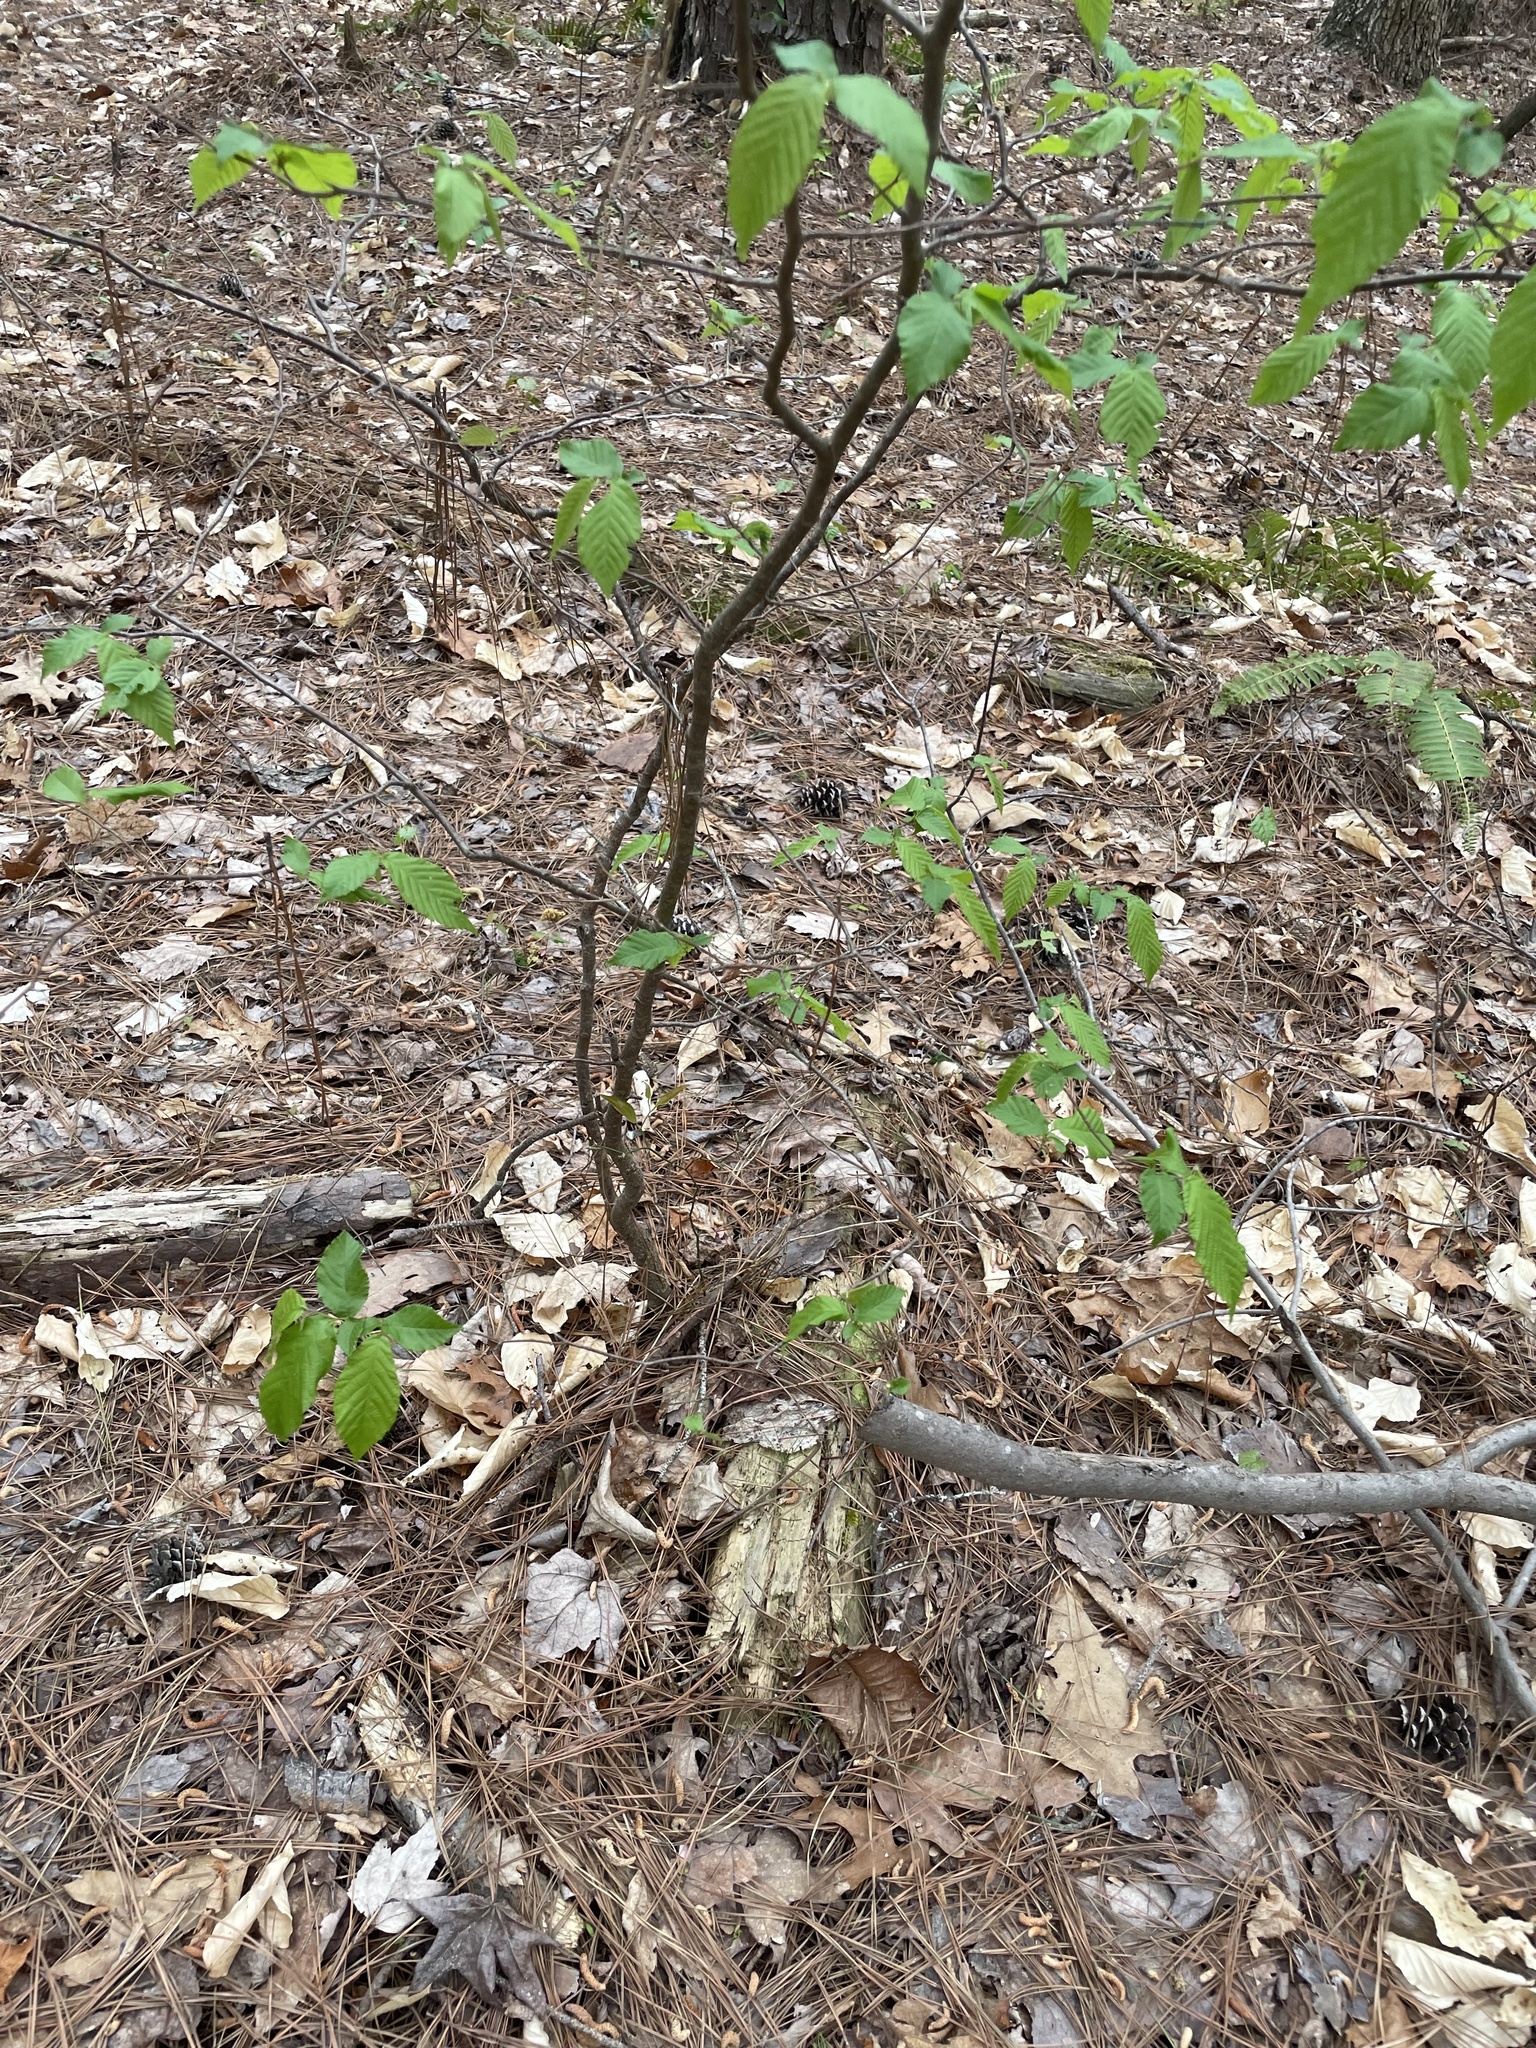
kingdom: Plantae
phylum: Tracheophyta
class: Magnoliopsida
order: Fagales
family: Betulaceae
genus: Carpinus
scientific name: Carpinus caroliniana
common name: American hornbeam
